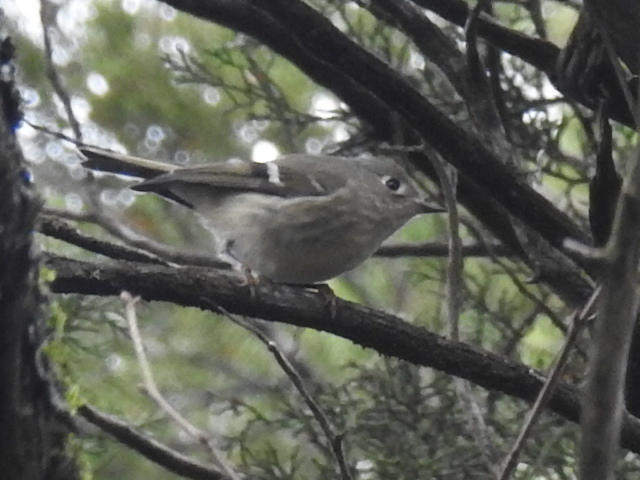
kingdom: Animalia
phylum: Chordata
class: Aves
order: Passeriformes
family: Regulidae
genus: Regulus
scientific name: Regulus calendula
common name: Ruby-crowned kinglet
